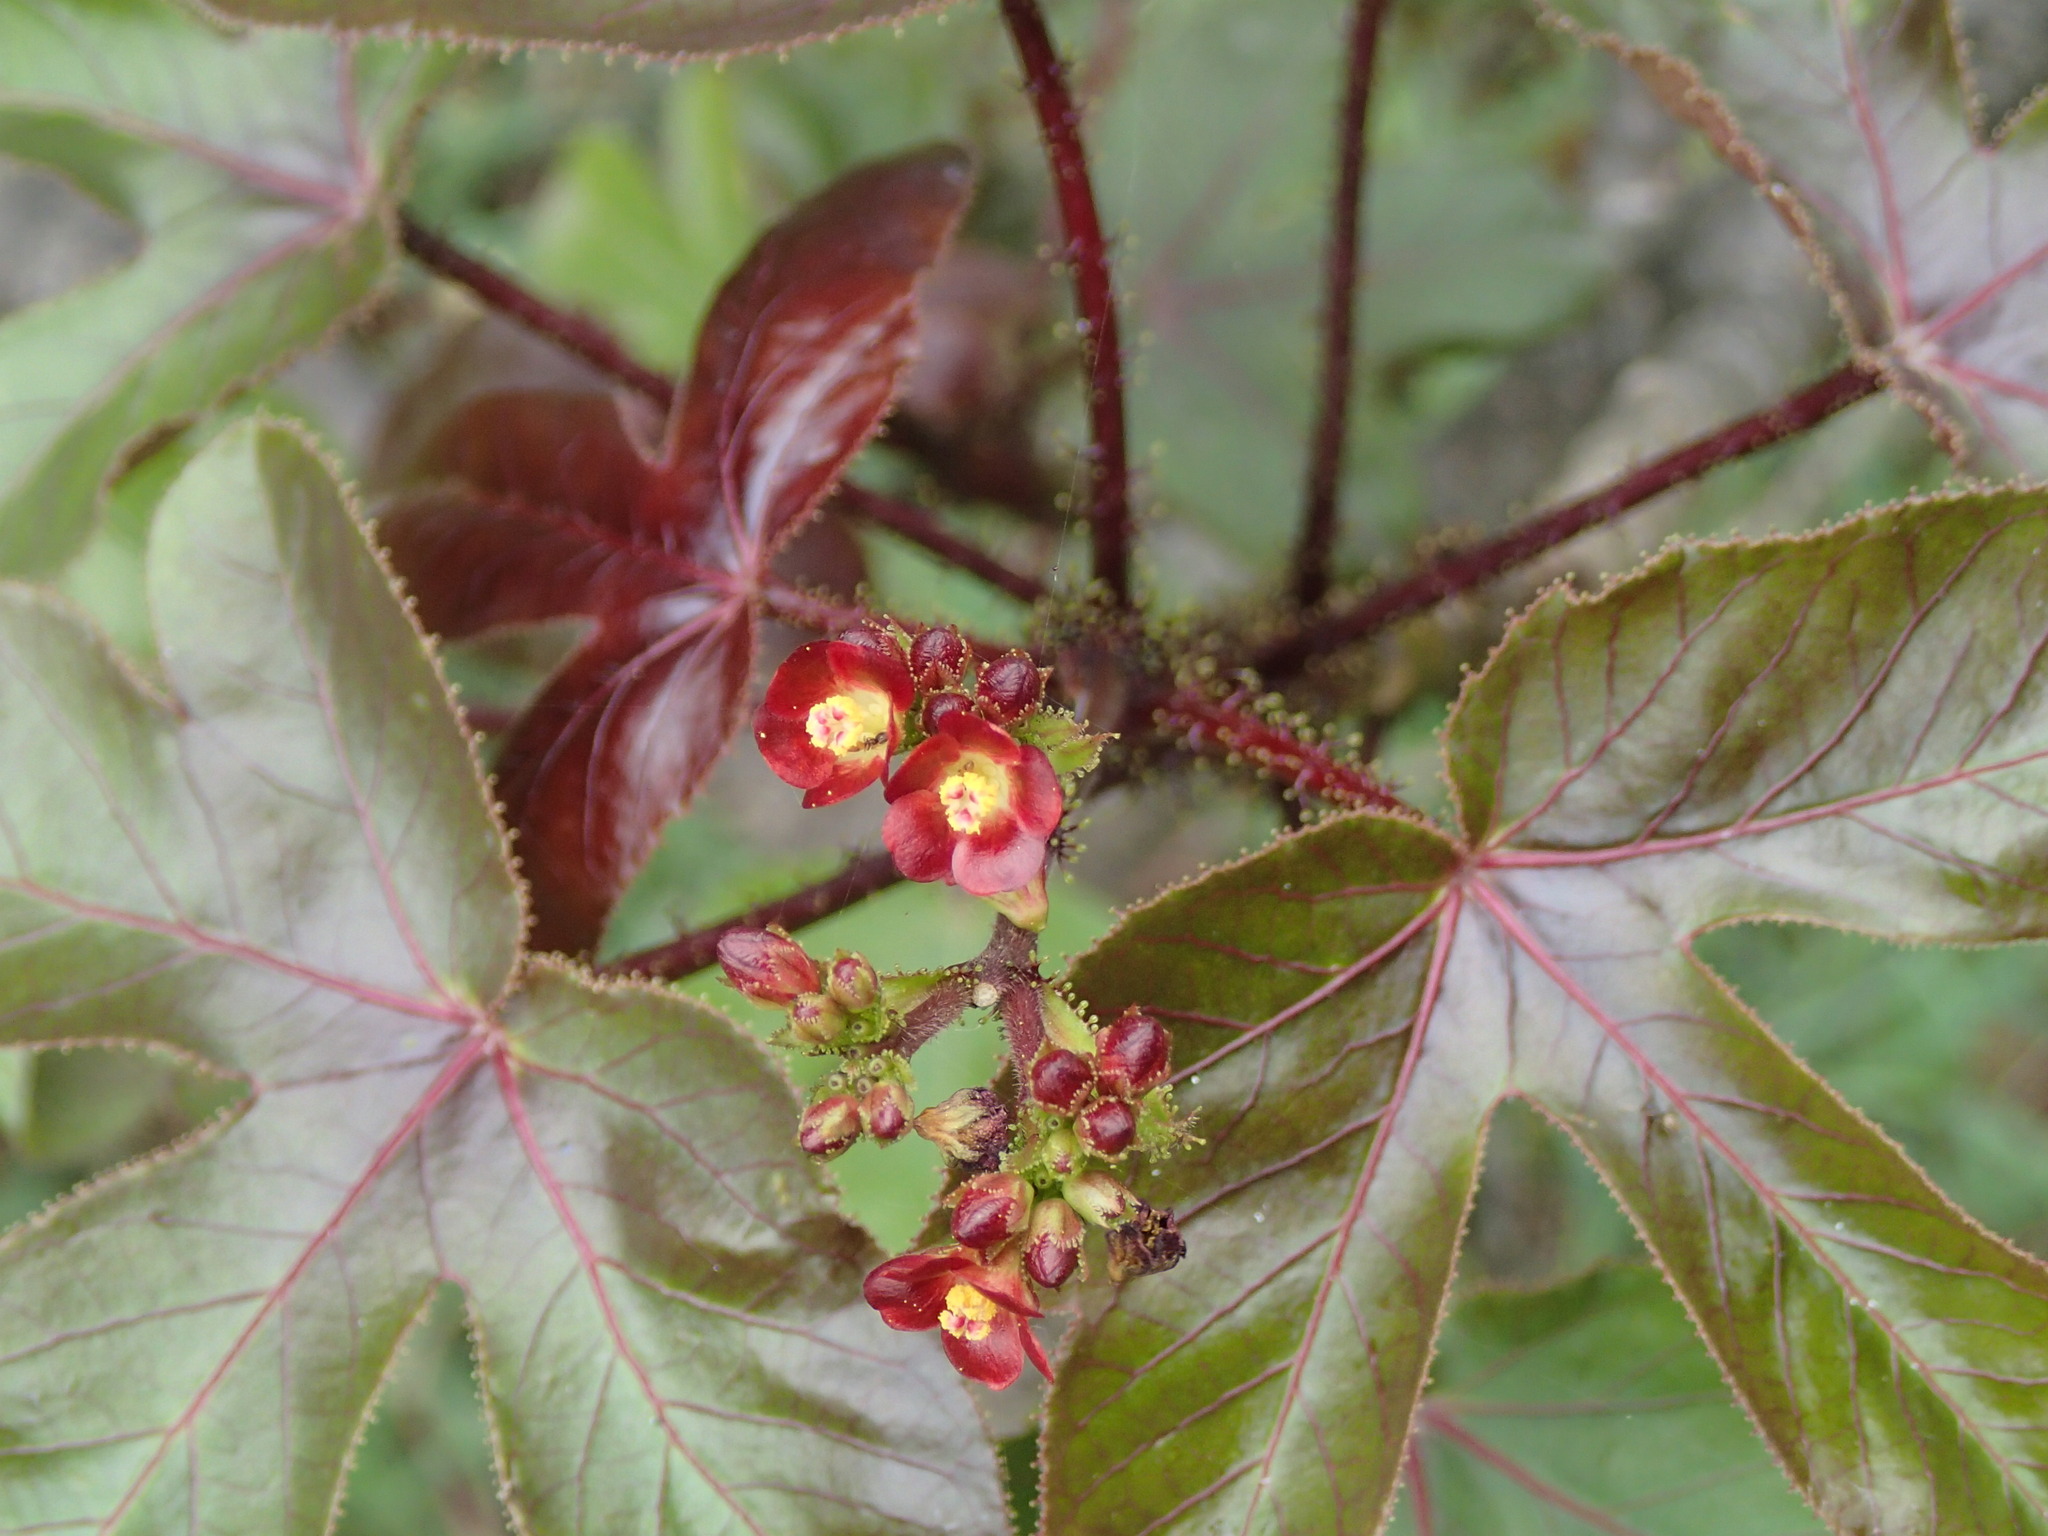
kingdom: Plantae
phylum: Tracheophyta
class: Magnoliopsida
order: Malpighiales
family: Euphorbiaceae
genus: Jatropha
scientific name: Jatropha gossypiifolia
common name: Bellyache bush
